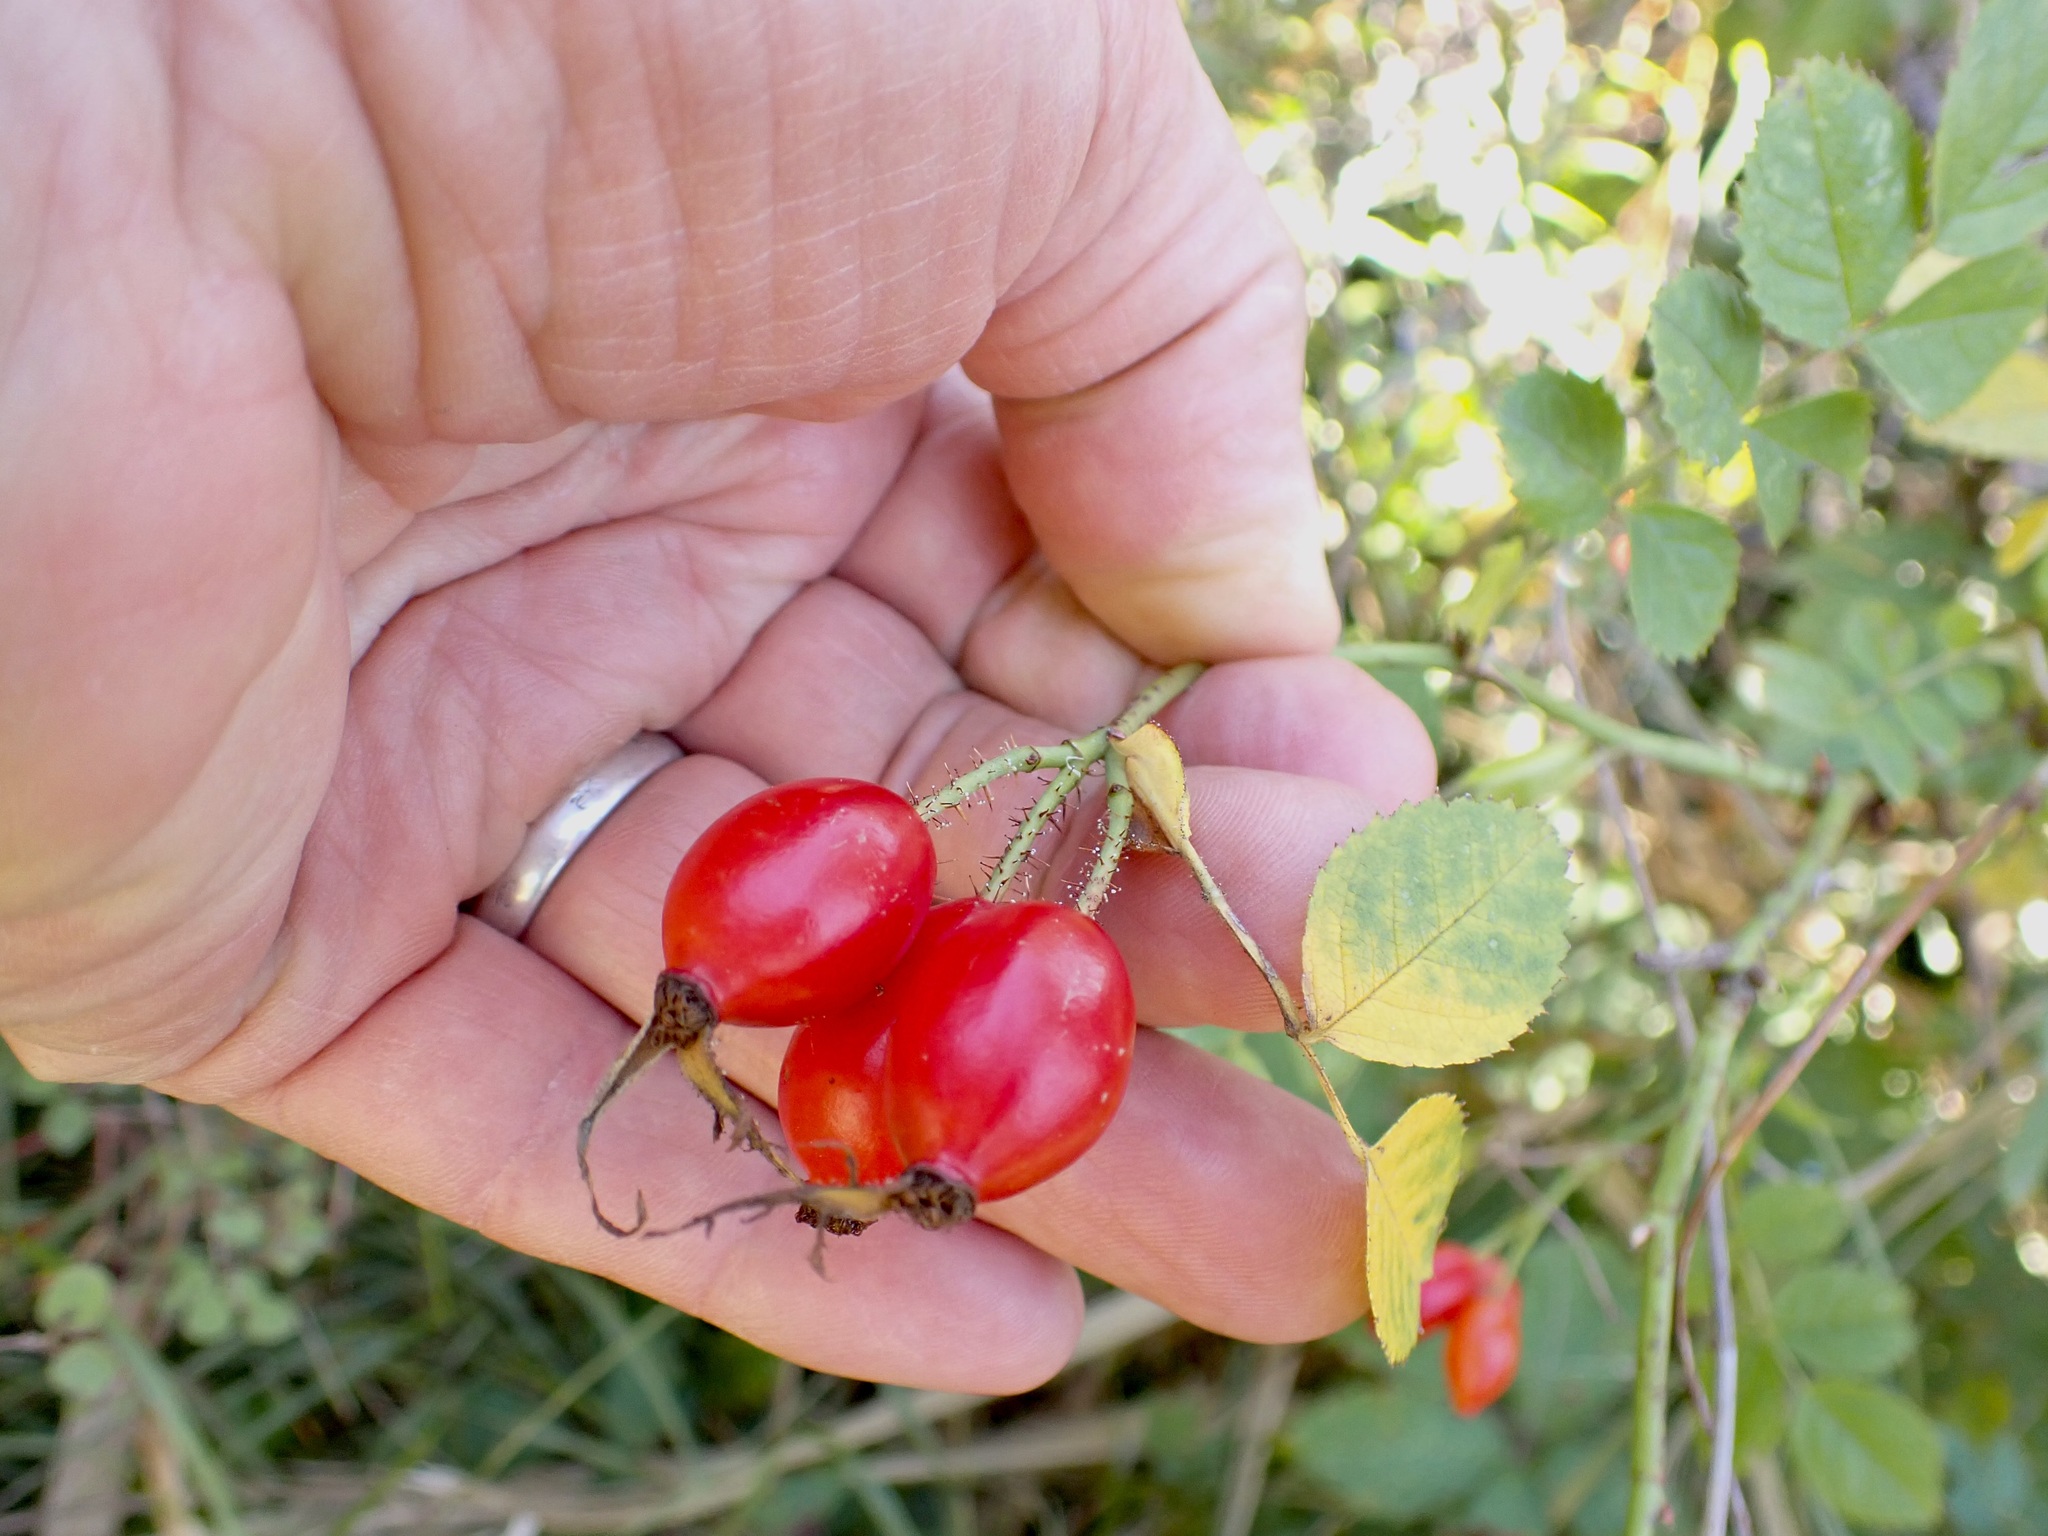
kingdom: Plantae
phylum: Tracheophyta
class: Magnoliopsida
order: Rosales
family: Rosaceae
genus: Rosa
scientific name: Rosa rubiginosa
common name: Sweet-briar
